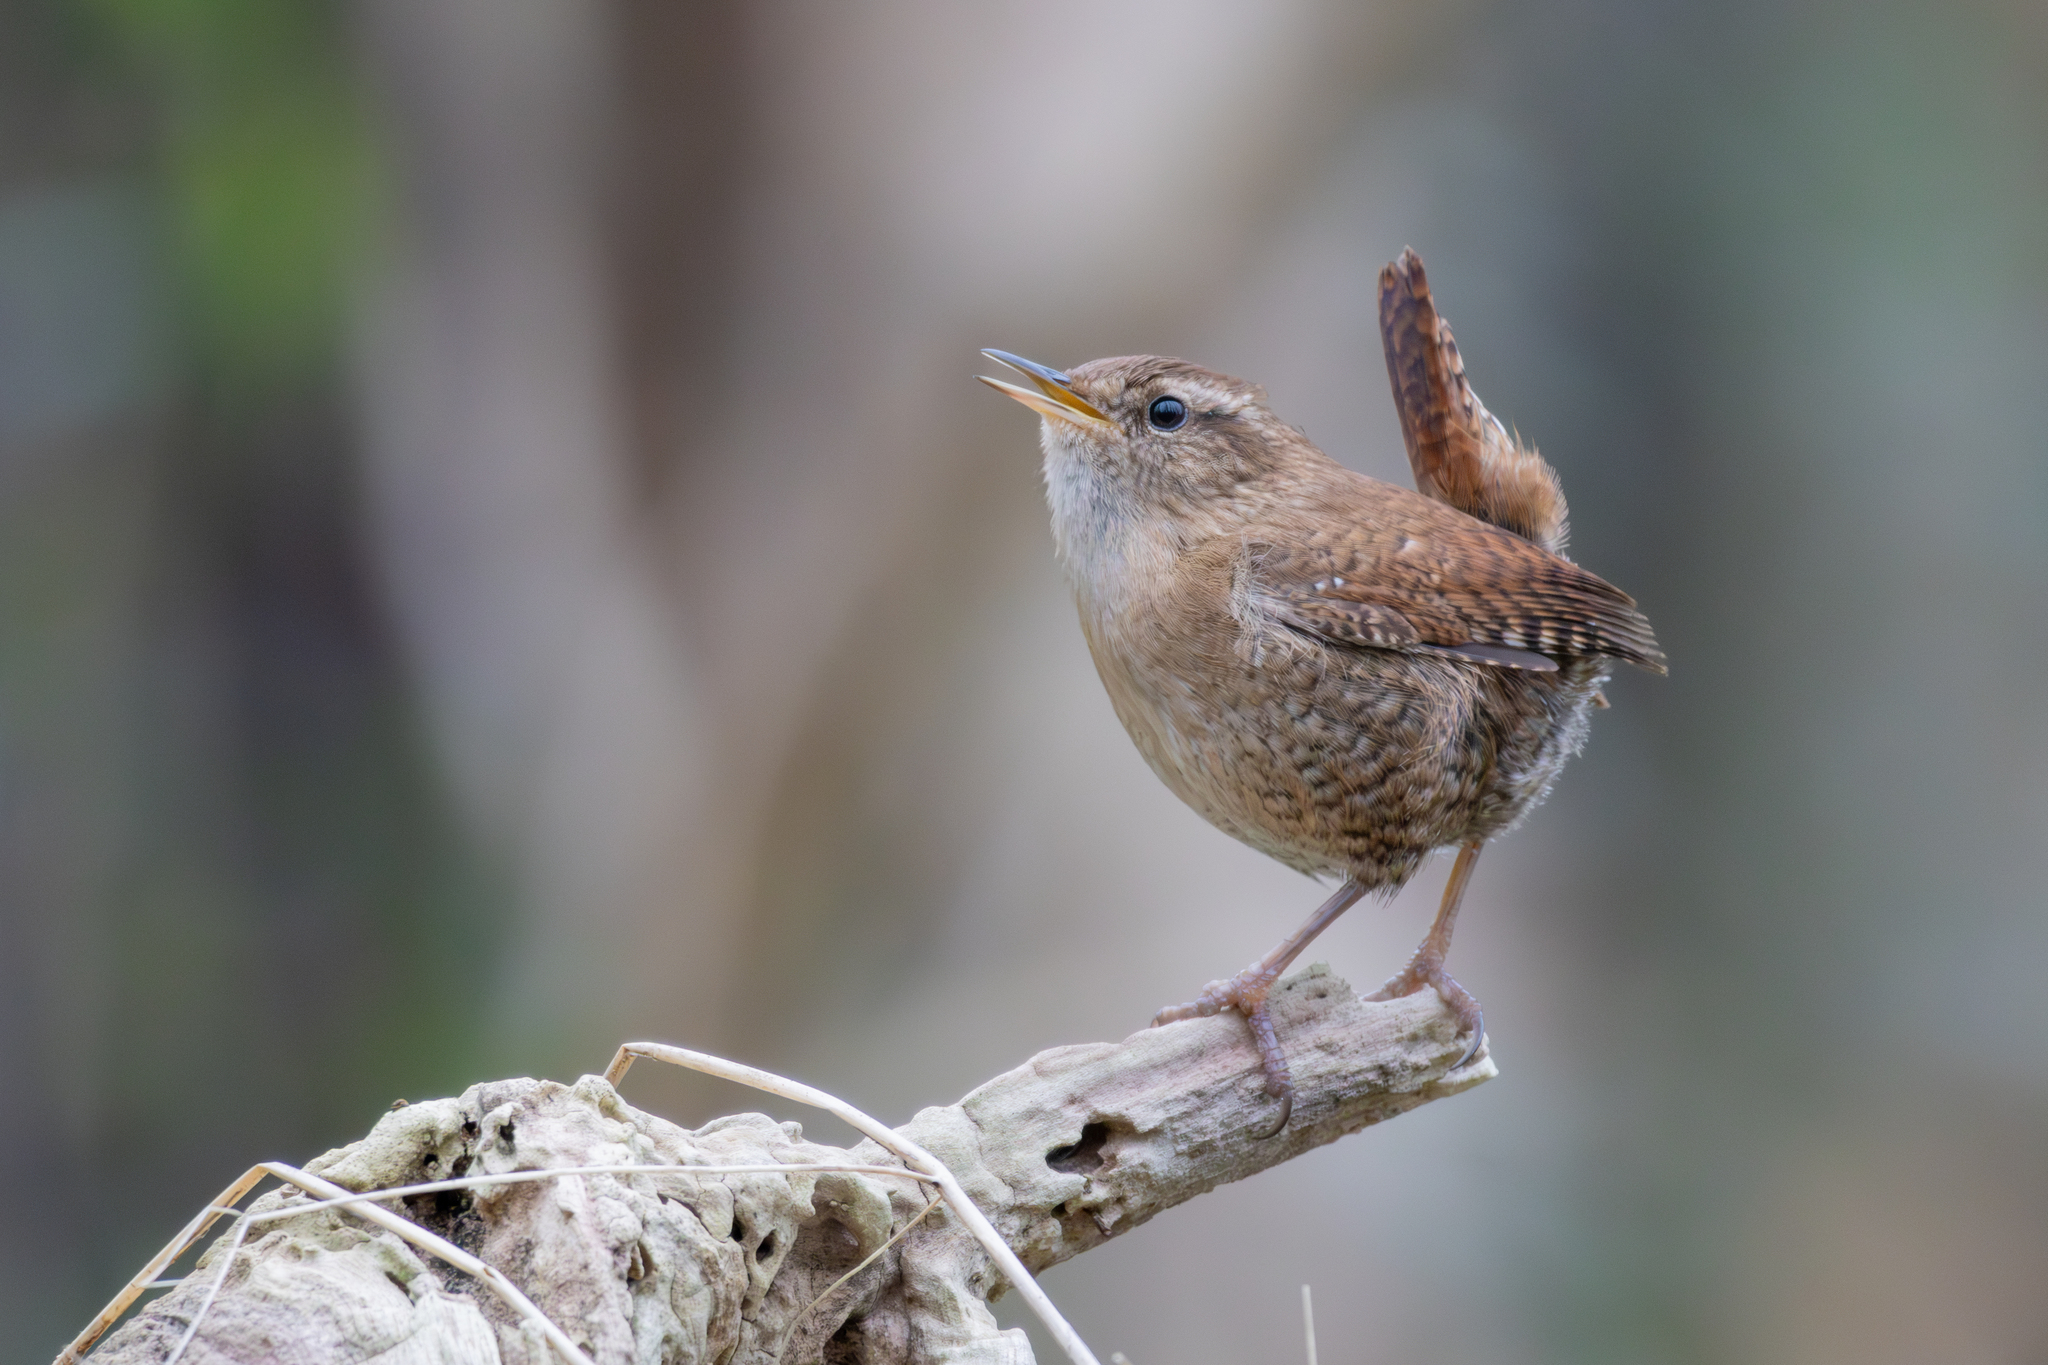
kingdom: Animalia
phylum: Chordata
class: Aves
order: Passeriformes
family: Troglodytidae
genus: Troglodytes
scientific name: Troglodytes troglodytes
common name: Eurasian wren
